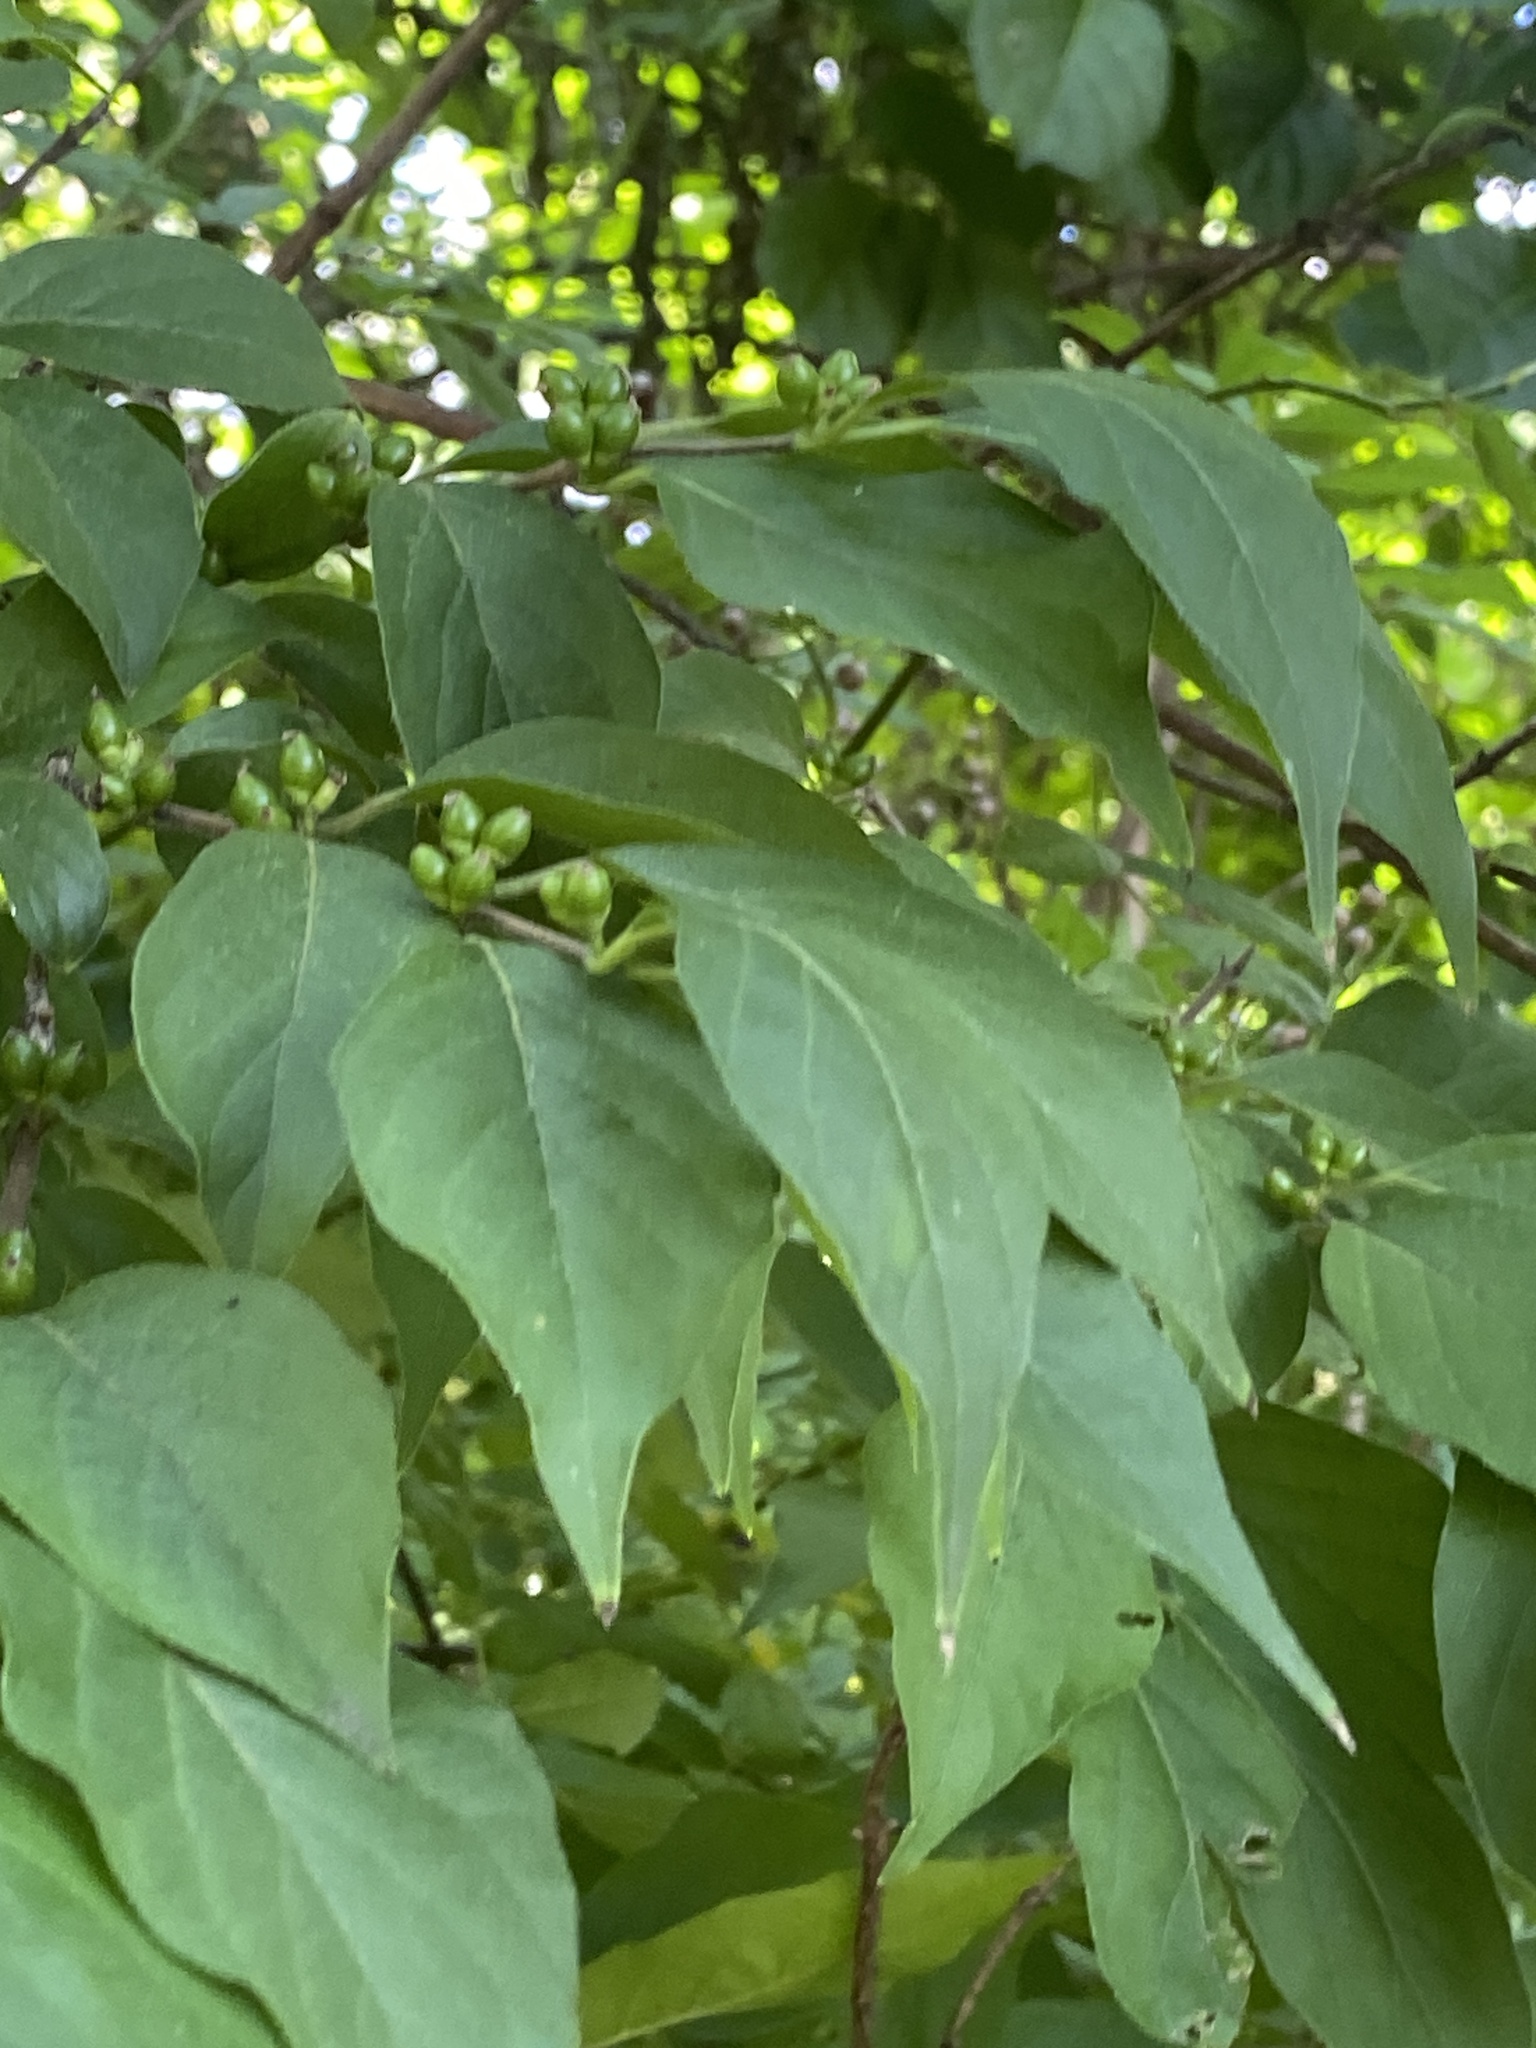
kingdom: Plantae
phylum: Tracheophyta
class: Magnoliopsida
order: Dipsacales
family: Caprifoliaceae
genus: Lonicera
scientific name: Lonicera maackii
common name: Amur honeysuckle
